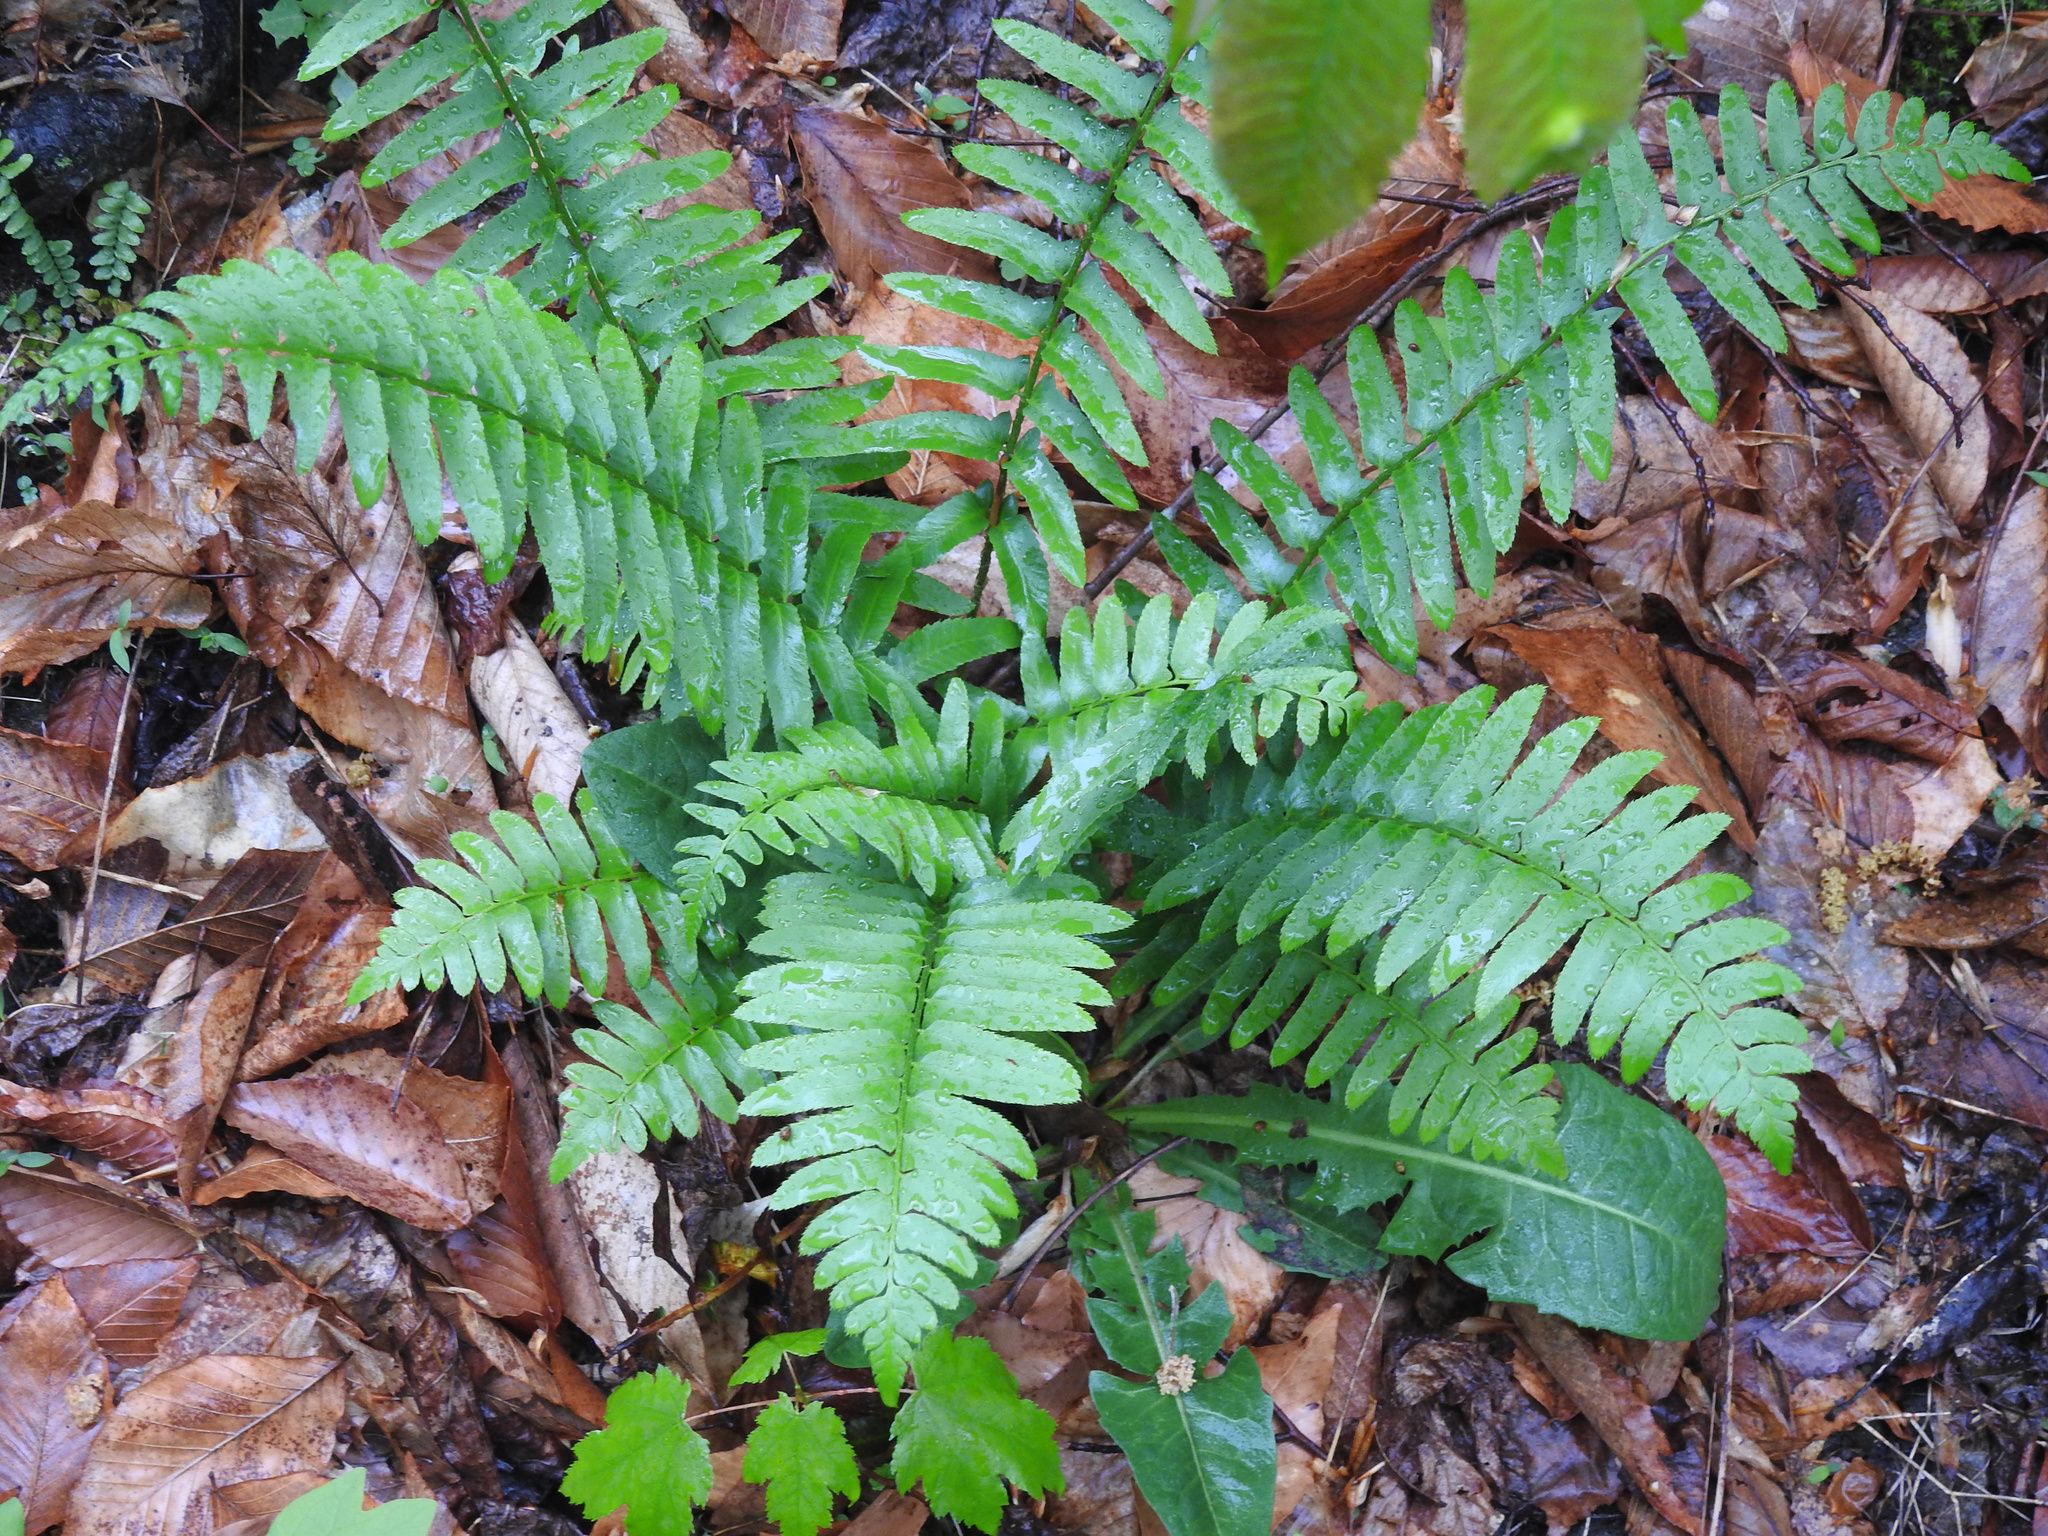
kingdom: Plantae
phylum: Tracheophyta
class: Polypodiopsida
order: Polypodiales
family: Dryopteridaceae
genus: Polystichum
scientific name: Polystichum acrostichoides
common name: Christmas fern
